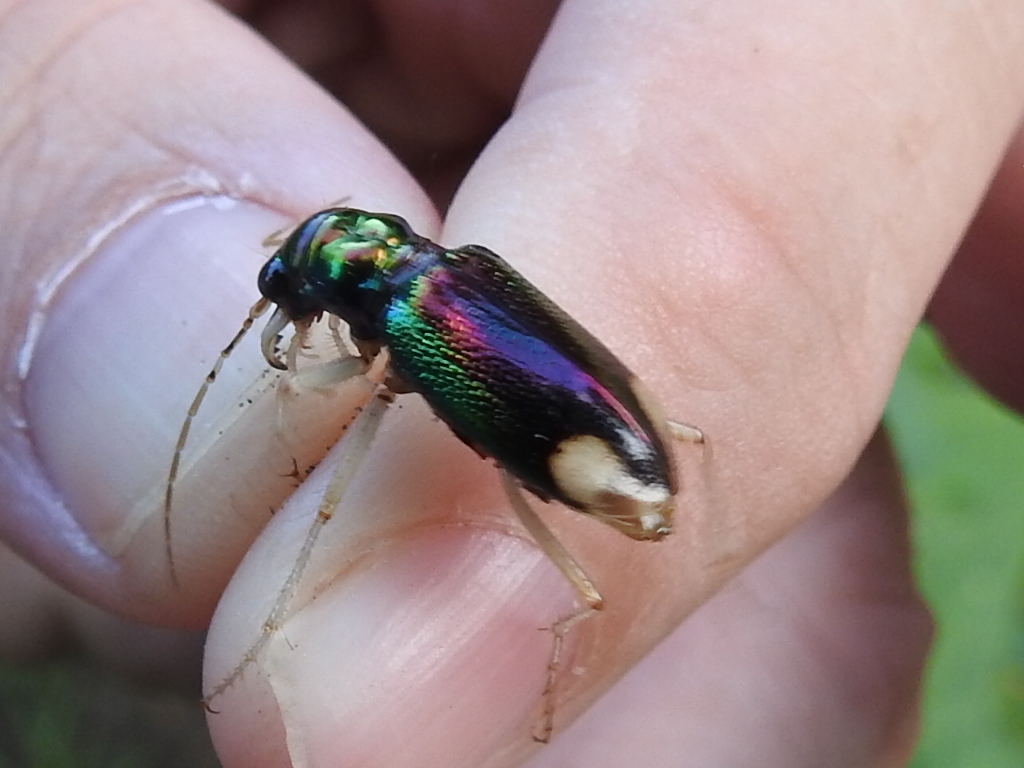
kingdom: Animalia
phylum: Arthropoda
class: Insecta
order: Coleoptera
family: Carabidae
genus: Tetracha
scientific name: Tetracha carolina
